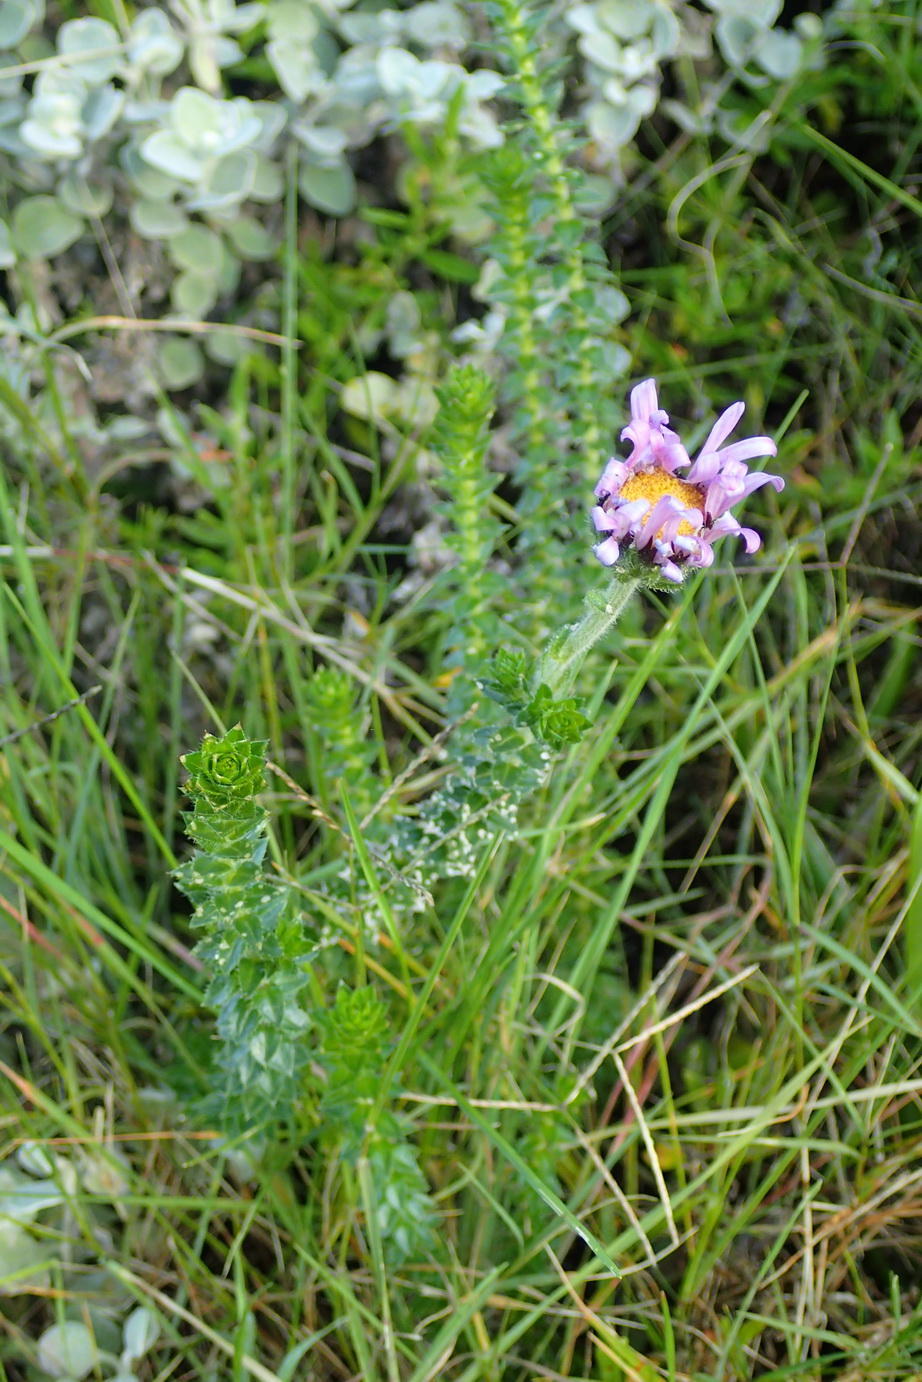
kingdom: Plantae
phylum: Tracheophyta
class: Magnoliopsida
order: Asterales
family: Asteraceae
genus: Felicia
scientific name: Felicia echinata
